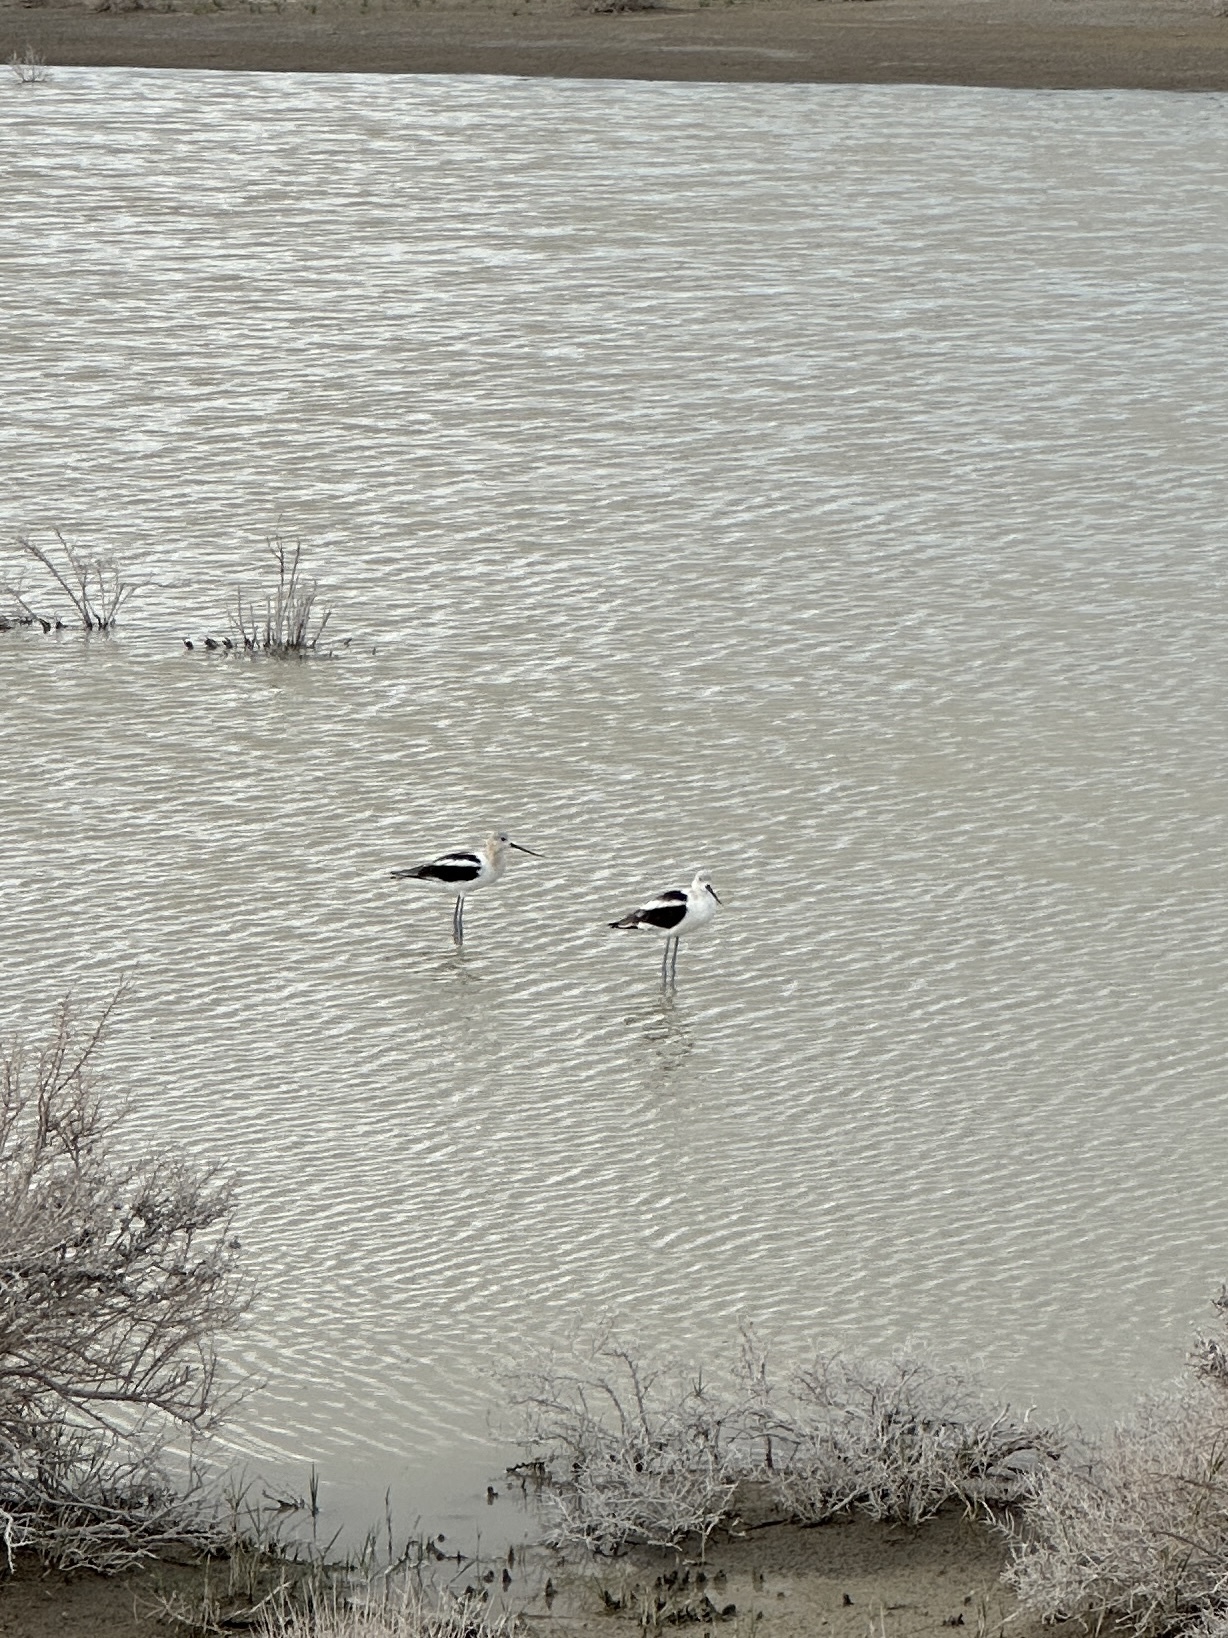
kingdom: Animalia
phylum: Chordata
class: Aves
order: Charadriiformes
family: Recurvirostridae
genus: Recurvirostra
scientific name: Recurvirostra americana
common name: American avocet
